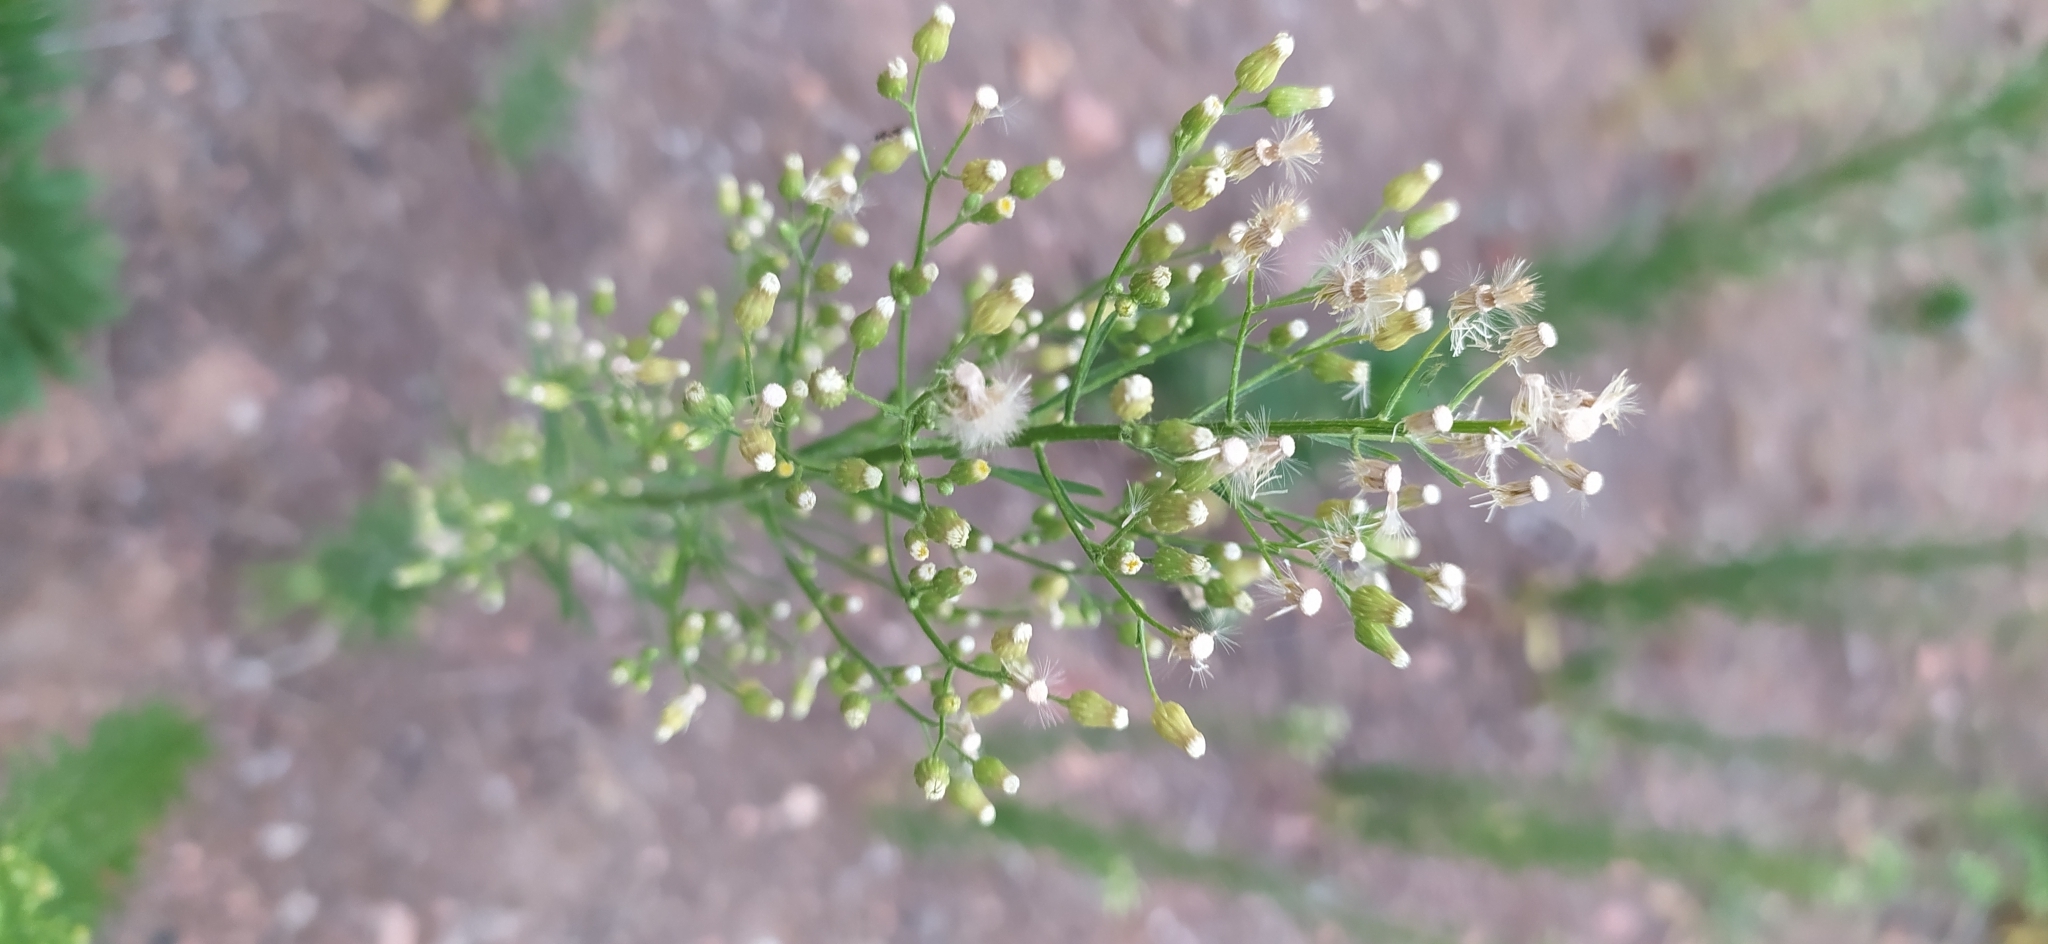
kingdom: Plantae
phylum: Tracheophyta
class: Magnoliopsida
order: Asterales
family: Asteraceae
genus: Erigeron
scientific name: Erigeron canadensis
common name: Canadian fleabane
